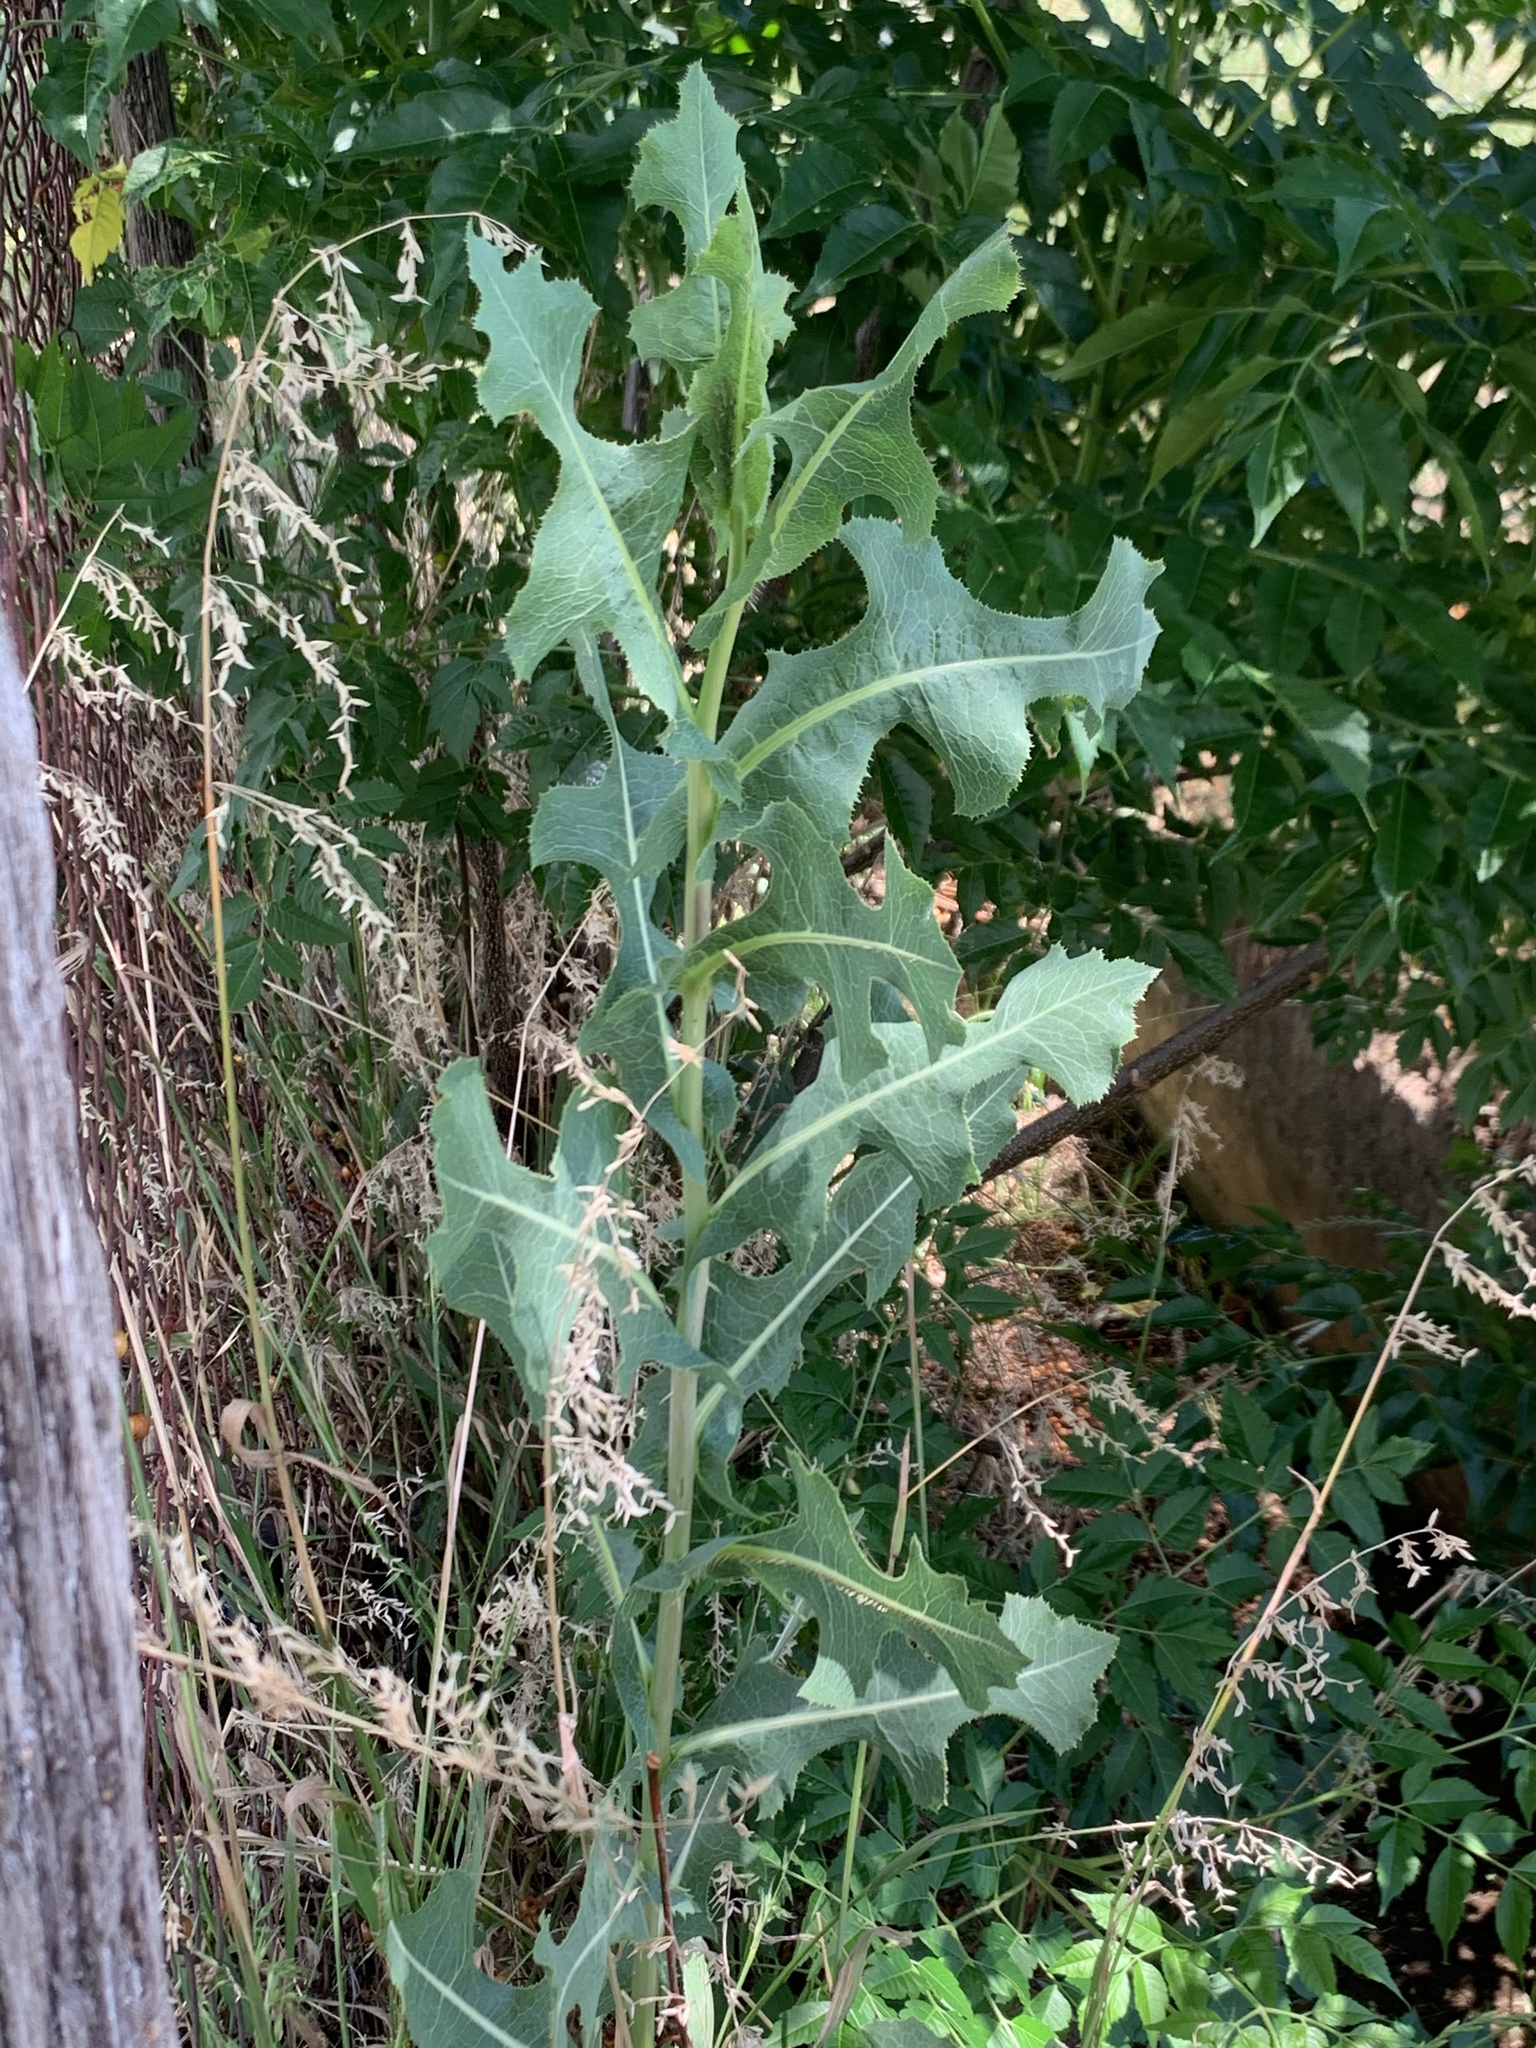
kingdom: Plantae
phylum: Tracheophyta
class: Magnoliopsida
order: Asterales
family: Asteraceae
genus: Lactuca
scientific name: Lactuca serriola
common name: Prickly lettuce
